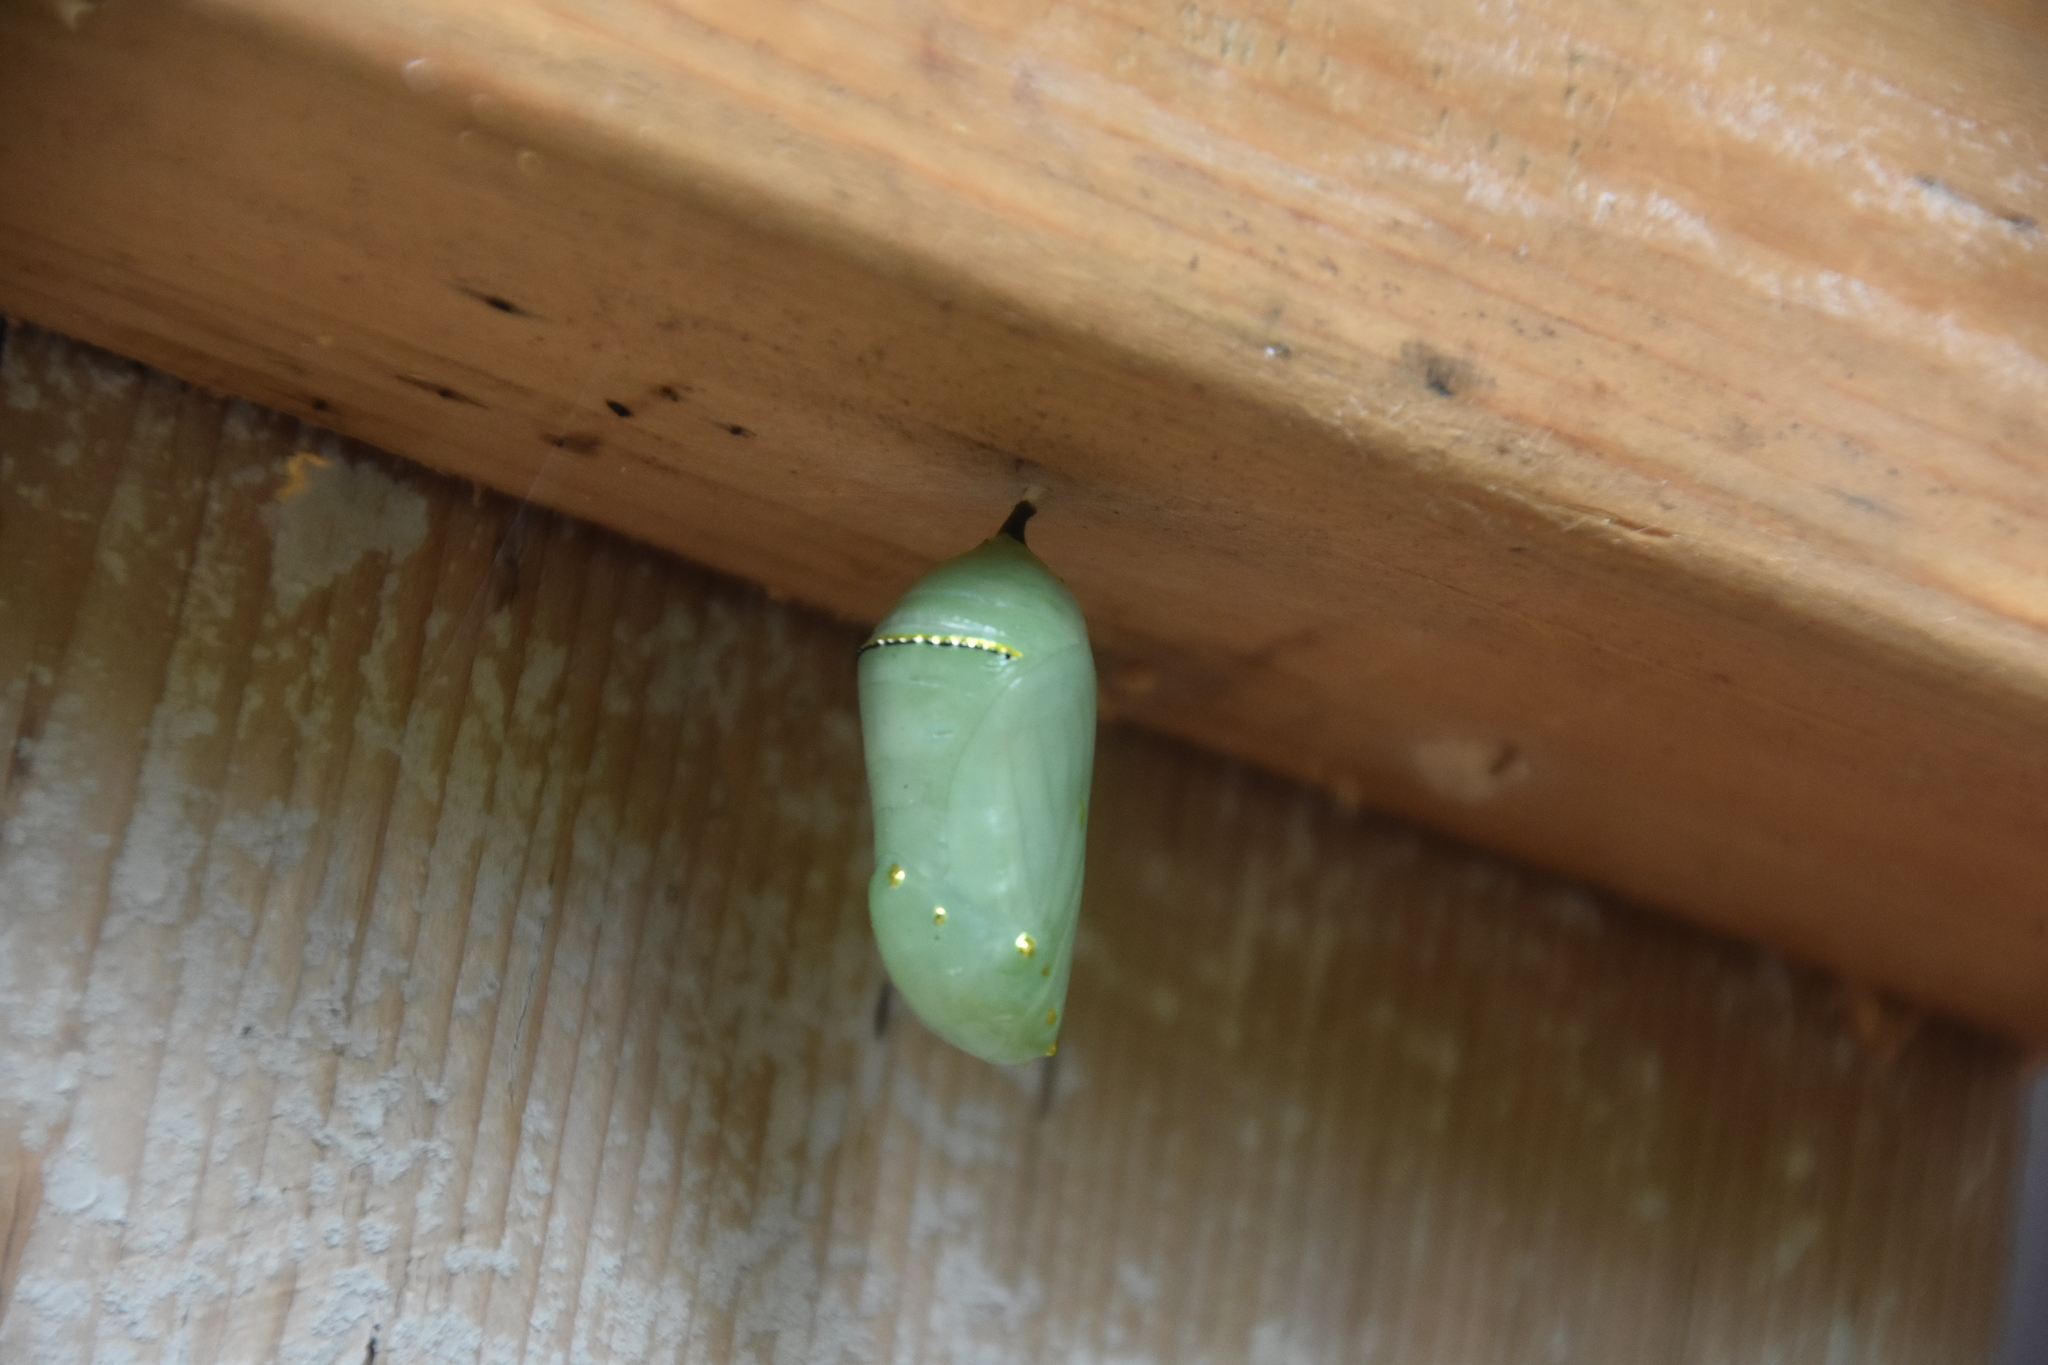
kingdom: Animalia
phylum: Arthropoda
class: Insecta
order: Lepidoptera
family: Nymphalidae
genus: Danaus
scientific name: Danaus plexippus
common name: Monarch
